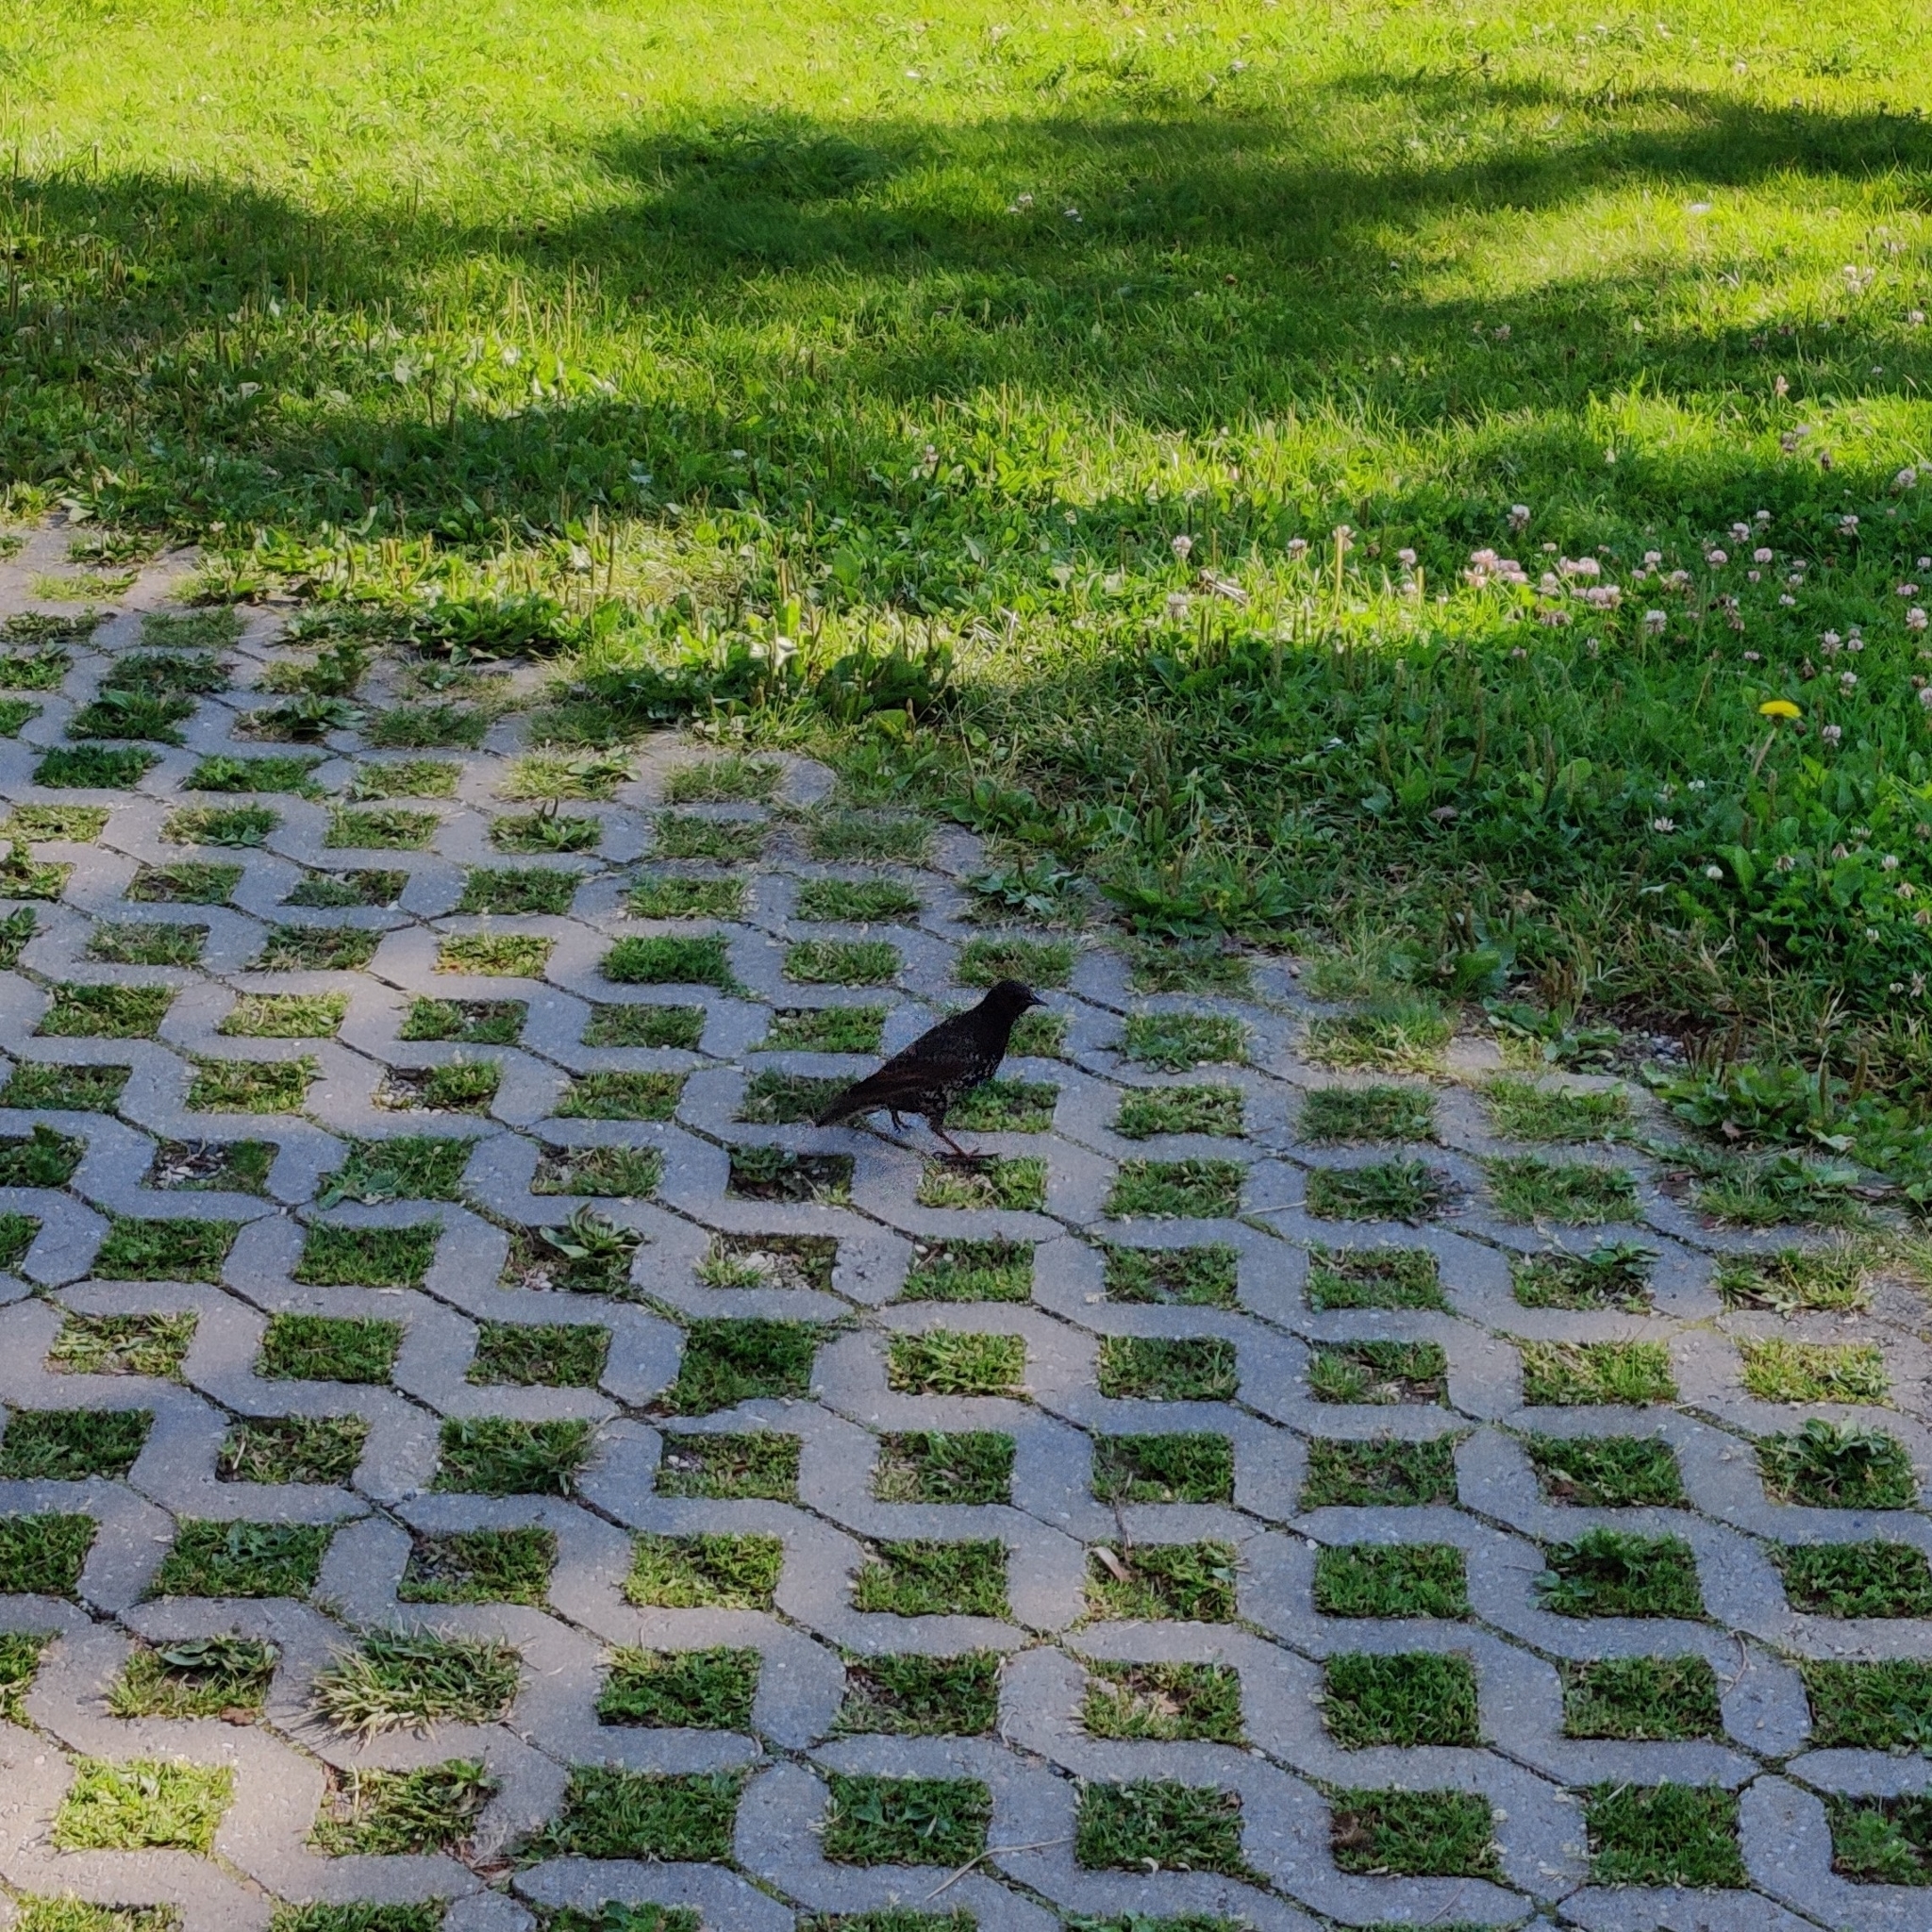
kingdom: Animalia
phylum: Chordata
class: Aves
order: Passeriformes
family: Sturnidae
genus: Sturnus
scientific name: Sturnus vulgaris
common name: Common starling
